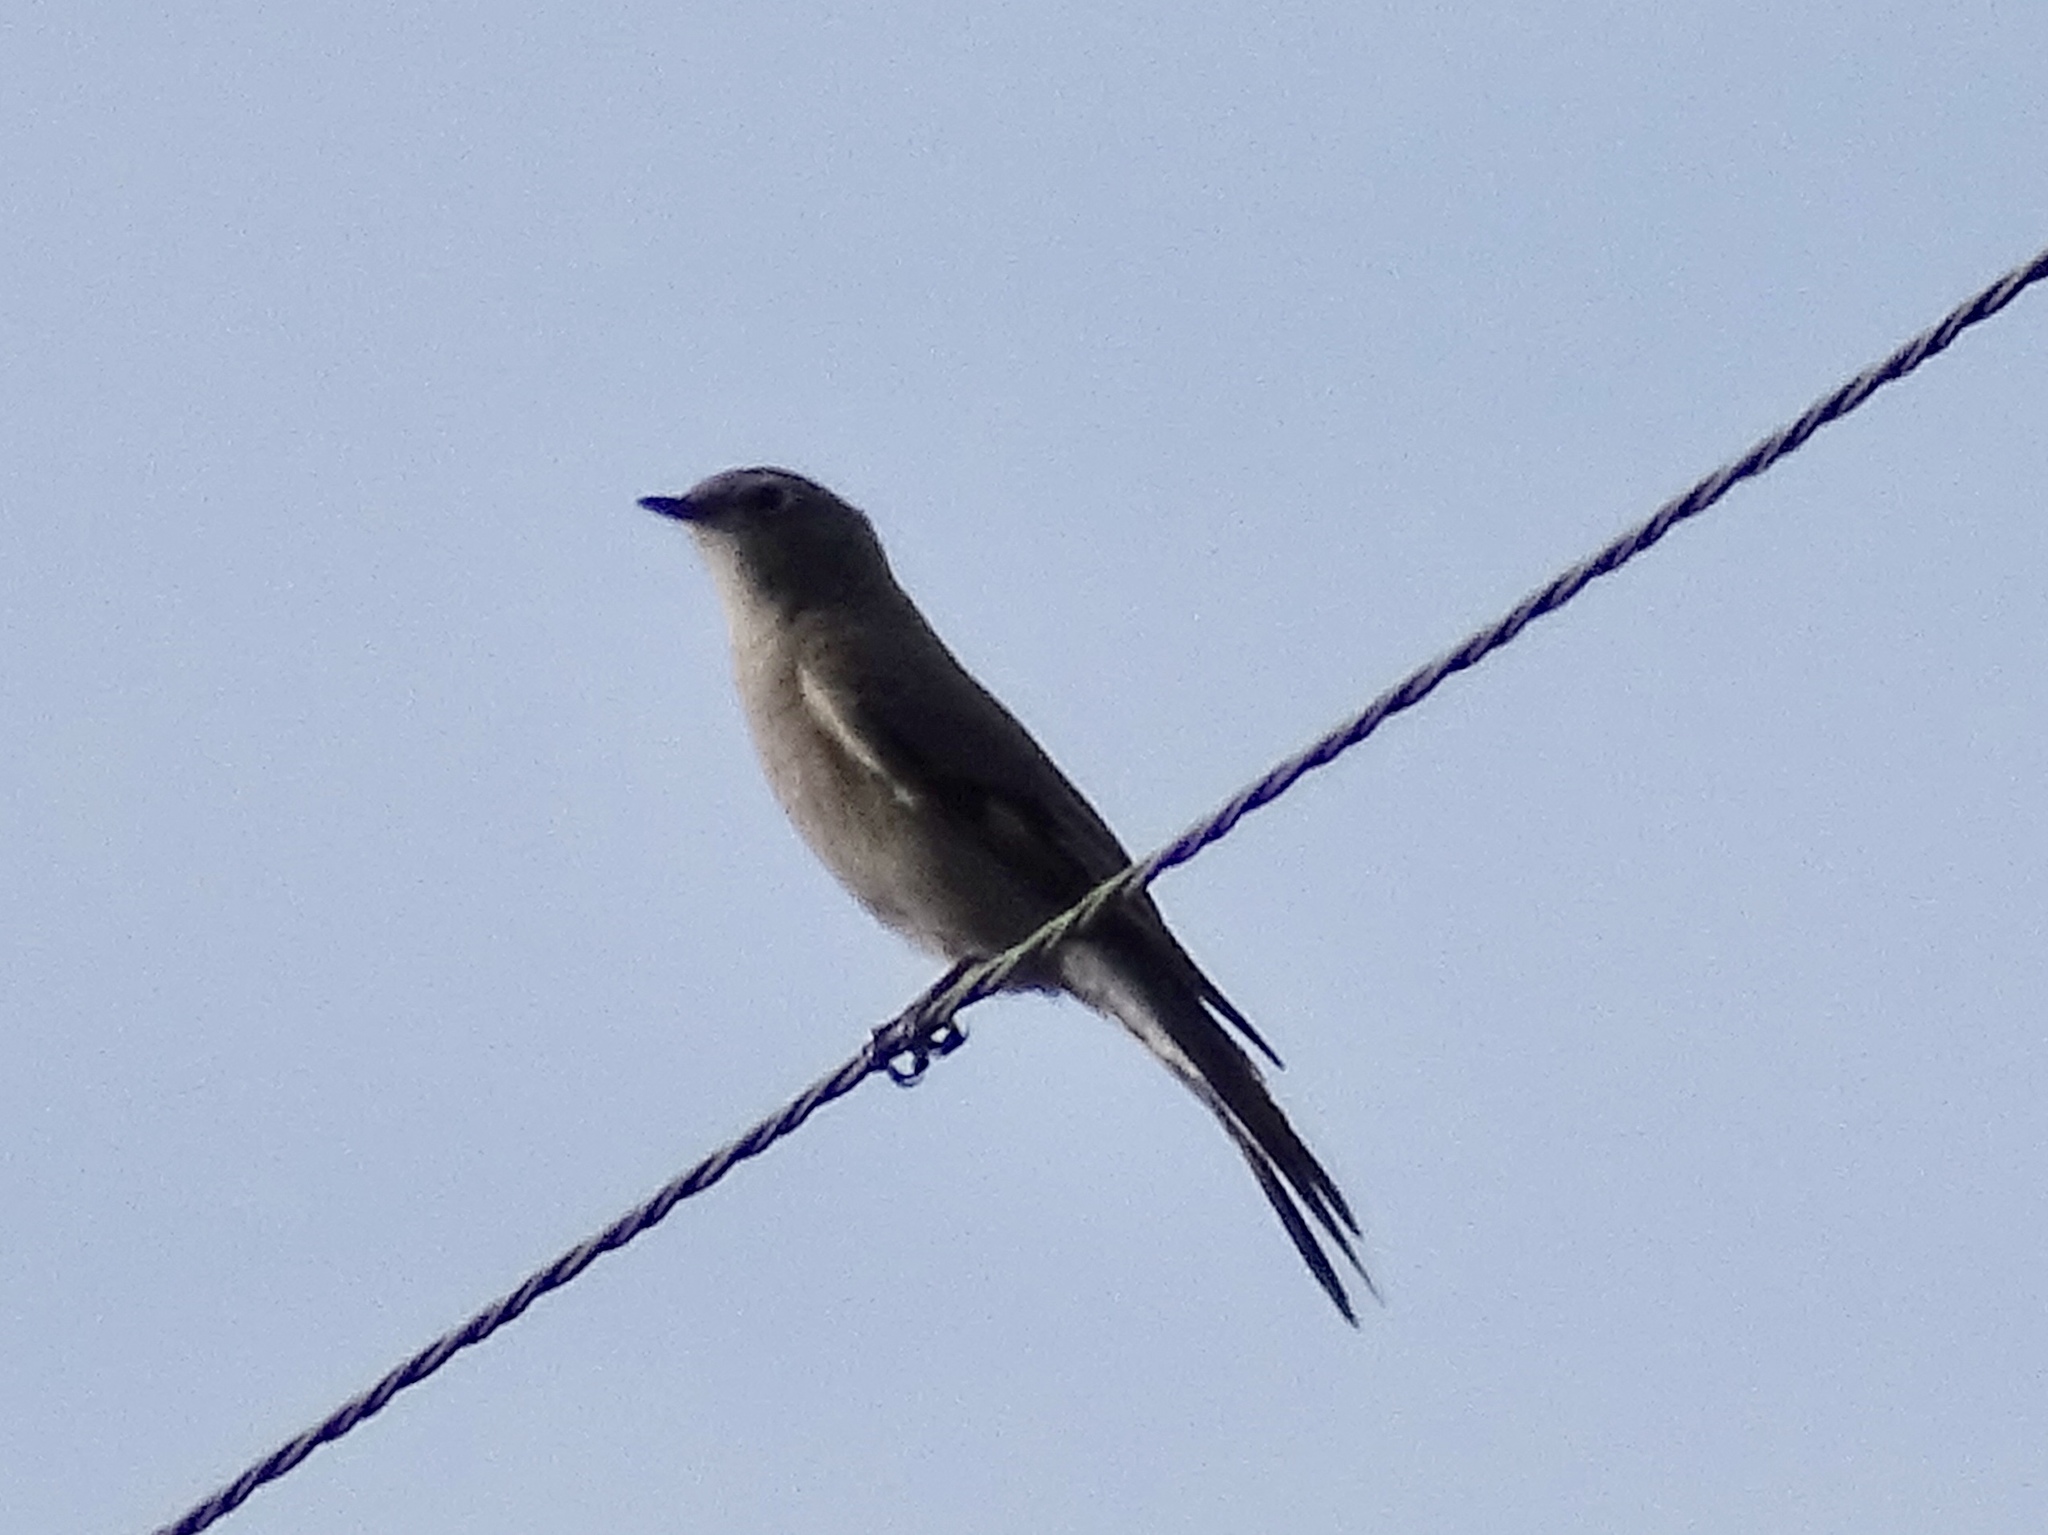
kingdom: Animalia
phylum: Chordata
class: Aves
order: Passeriformes
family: Turdidae
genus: Myadestes
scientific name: Myadestes townsendi
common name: Townsend's solitaire
